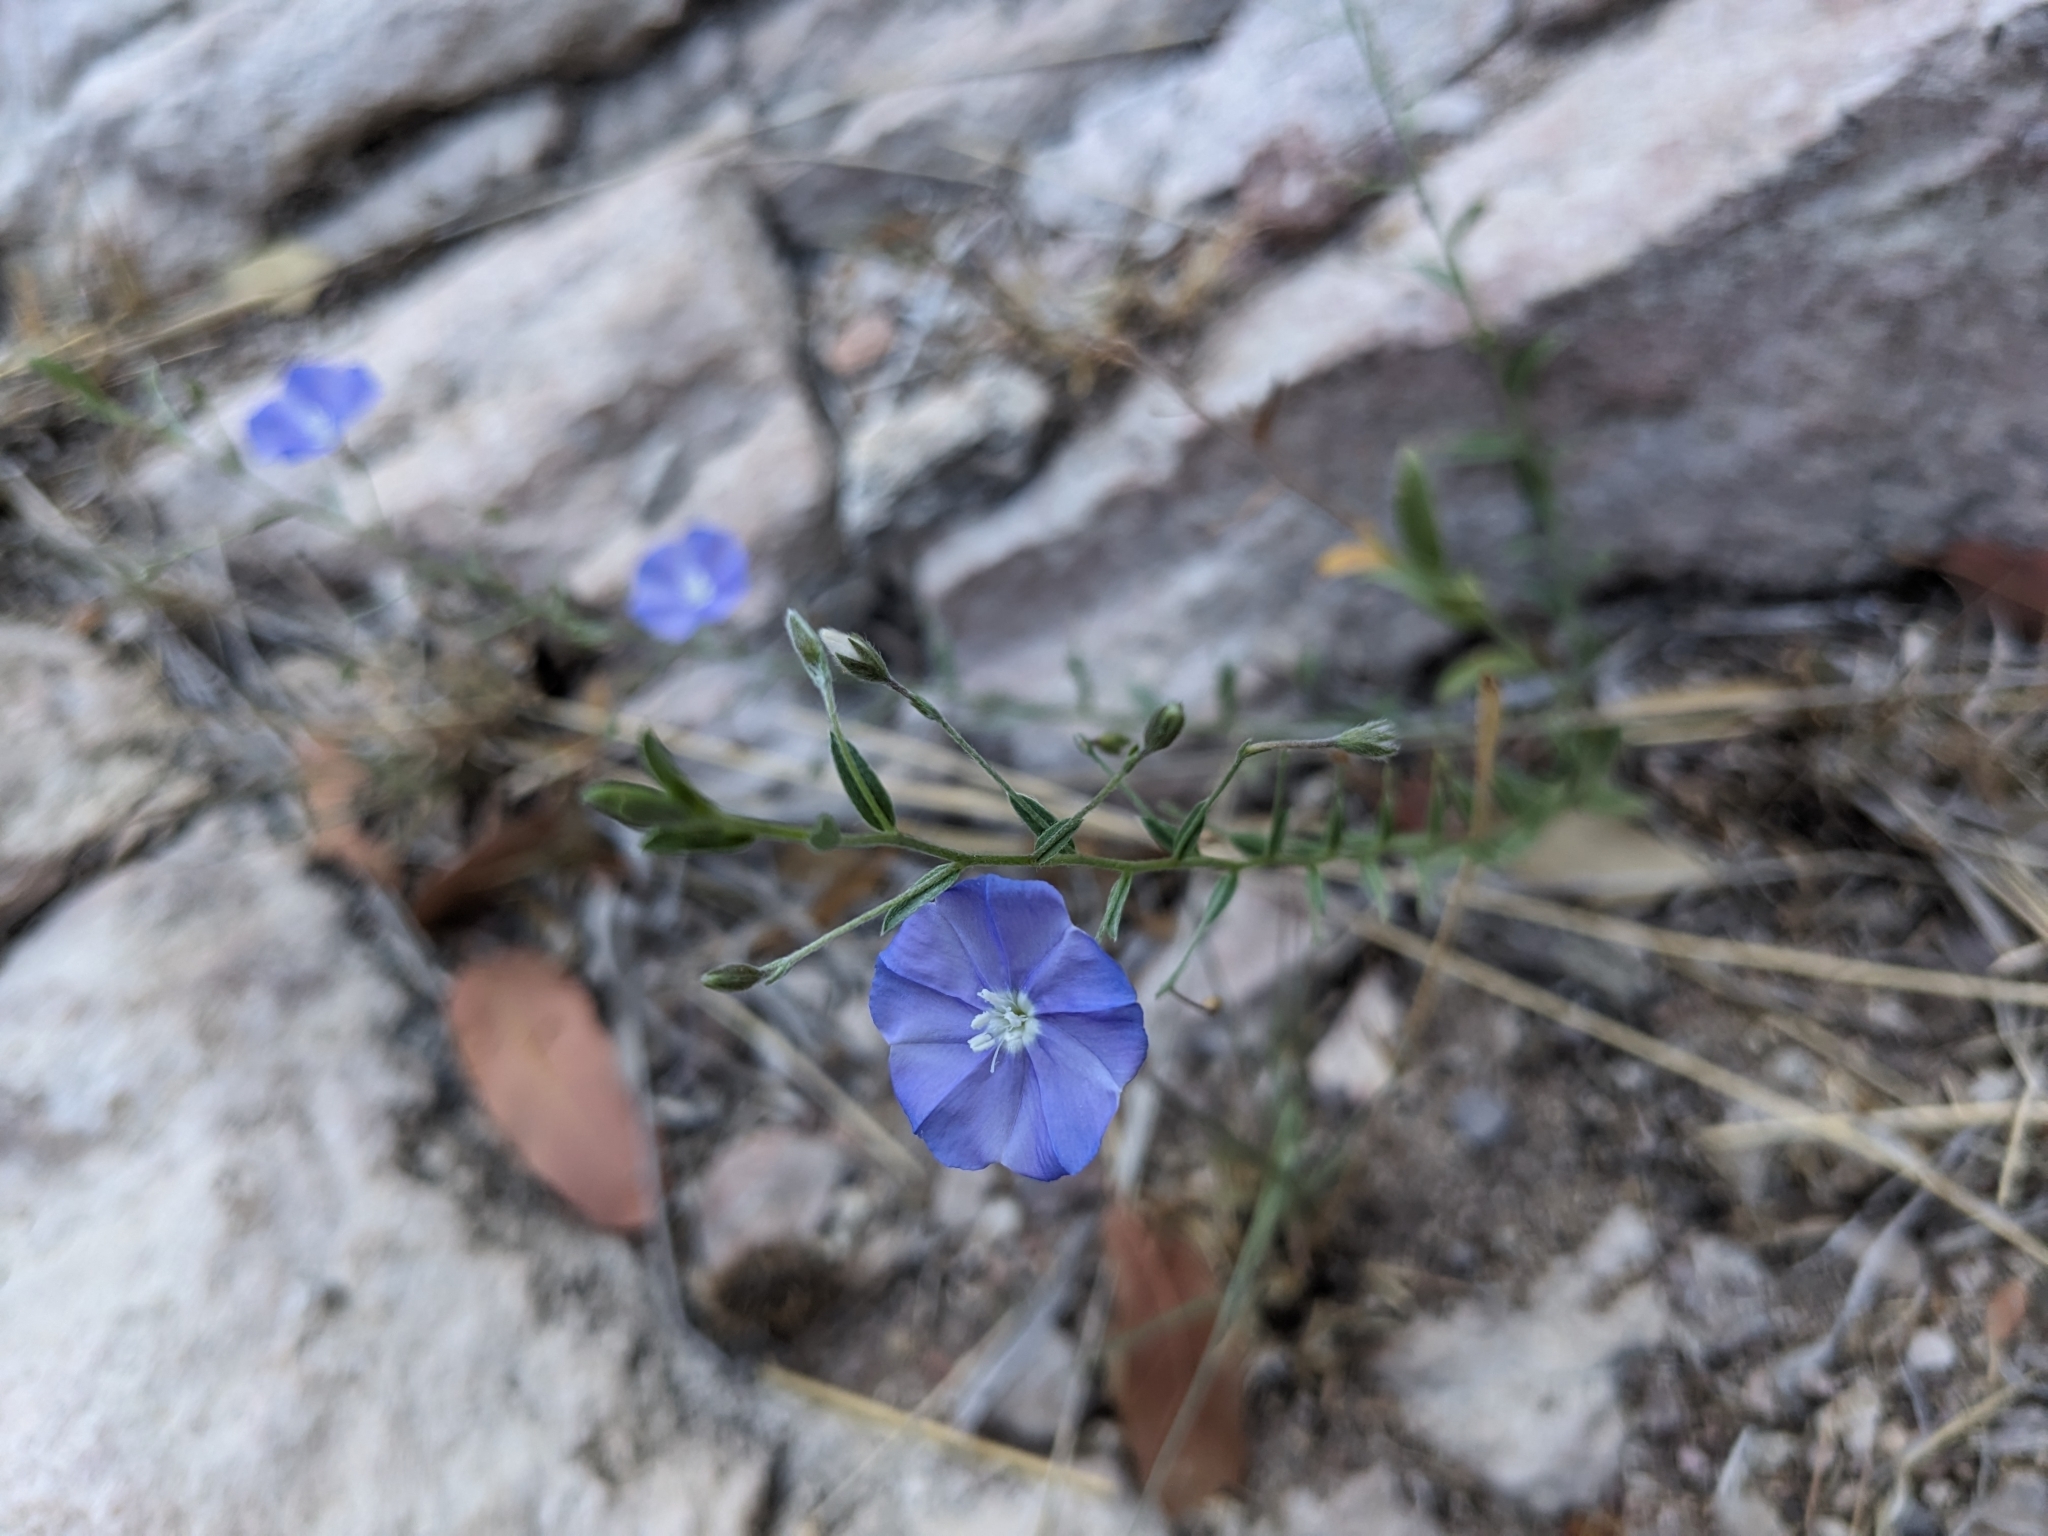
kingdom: Plantae
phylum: Tracheophyta
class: Magnoliopsida
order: Solanales
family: Convolvulaceae
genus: Evolvulus
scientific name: Evolvulus arizonicus
